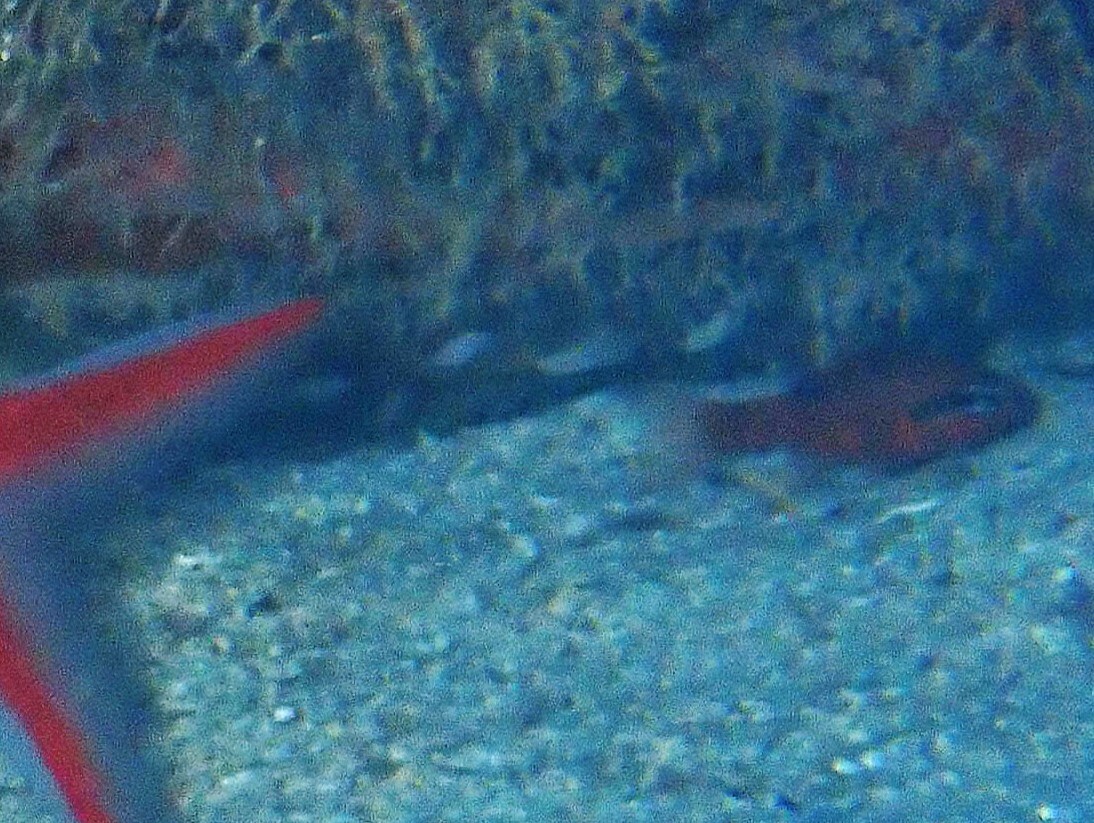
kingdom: Animalia
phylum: Chordata
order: Perciformes
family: Apogonidae
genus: Apogon
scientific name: Apogon maculatus
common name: Flamefish
